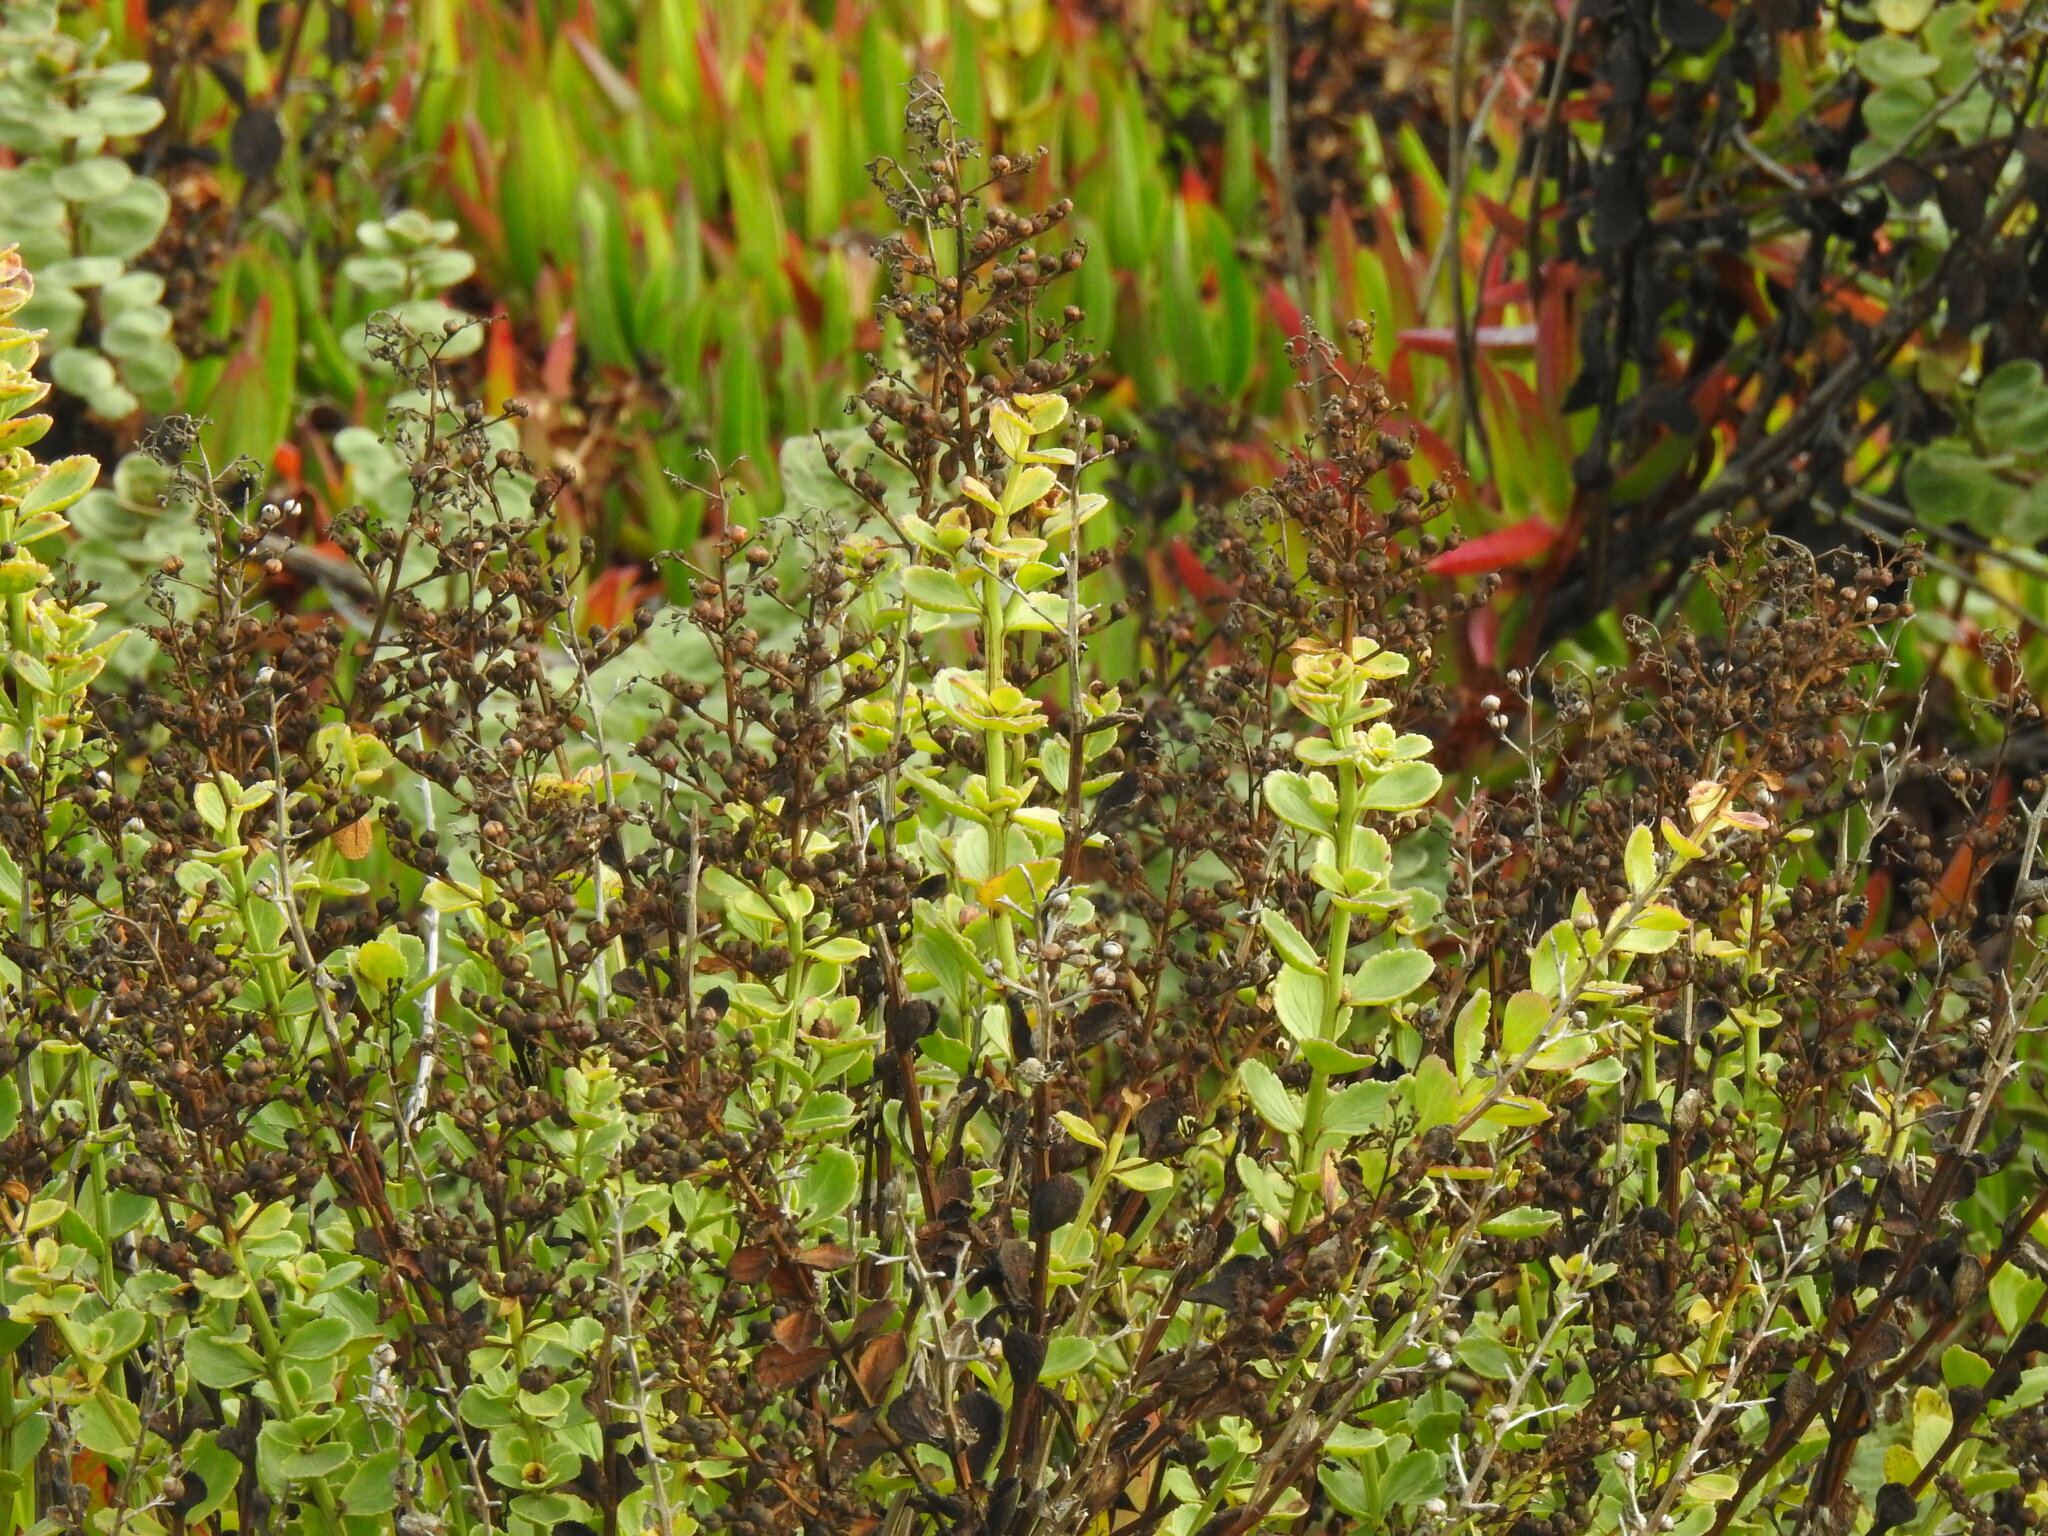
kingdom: Plantae
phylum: Tracheophyta
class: Magnoliopsida
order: Lamiales
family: Scrophulariaceae
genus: Scrophularia
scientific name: Scrophularia frutescens
